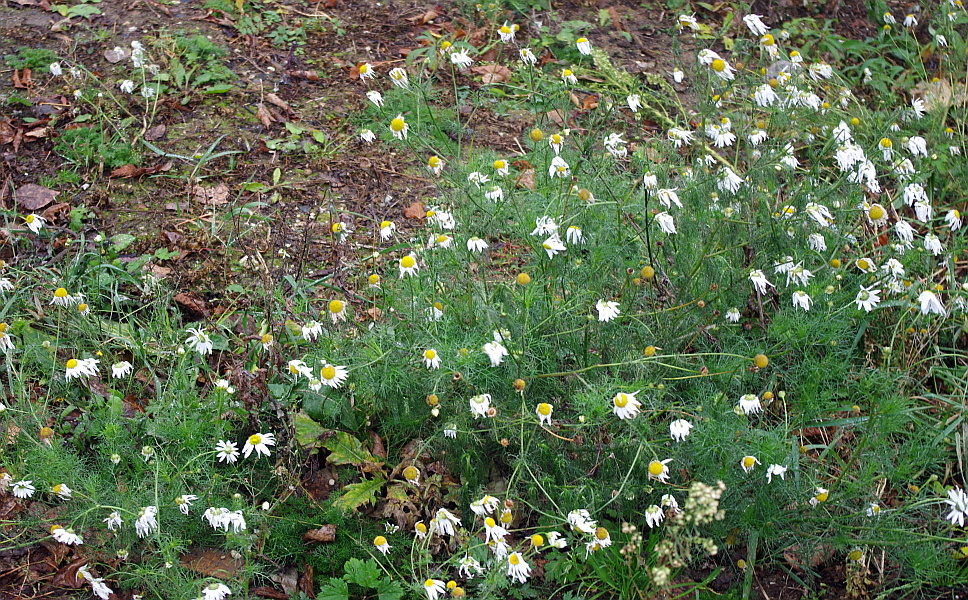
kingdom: Plantae
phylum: Tracheophyta
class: Magnoliopsida
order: Asterales
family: Asteraceae
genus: Tripleurospermum
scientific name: Tripleurospermum inodorum
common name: Scentless mayweed
